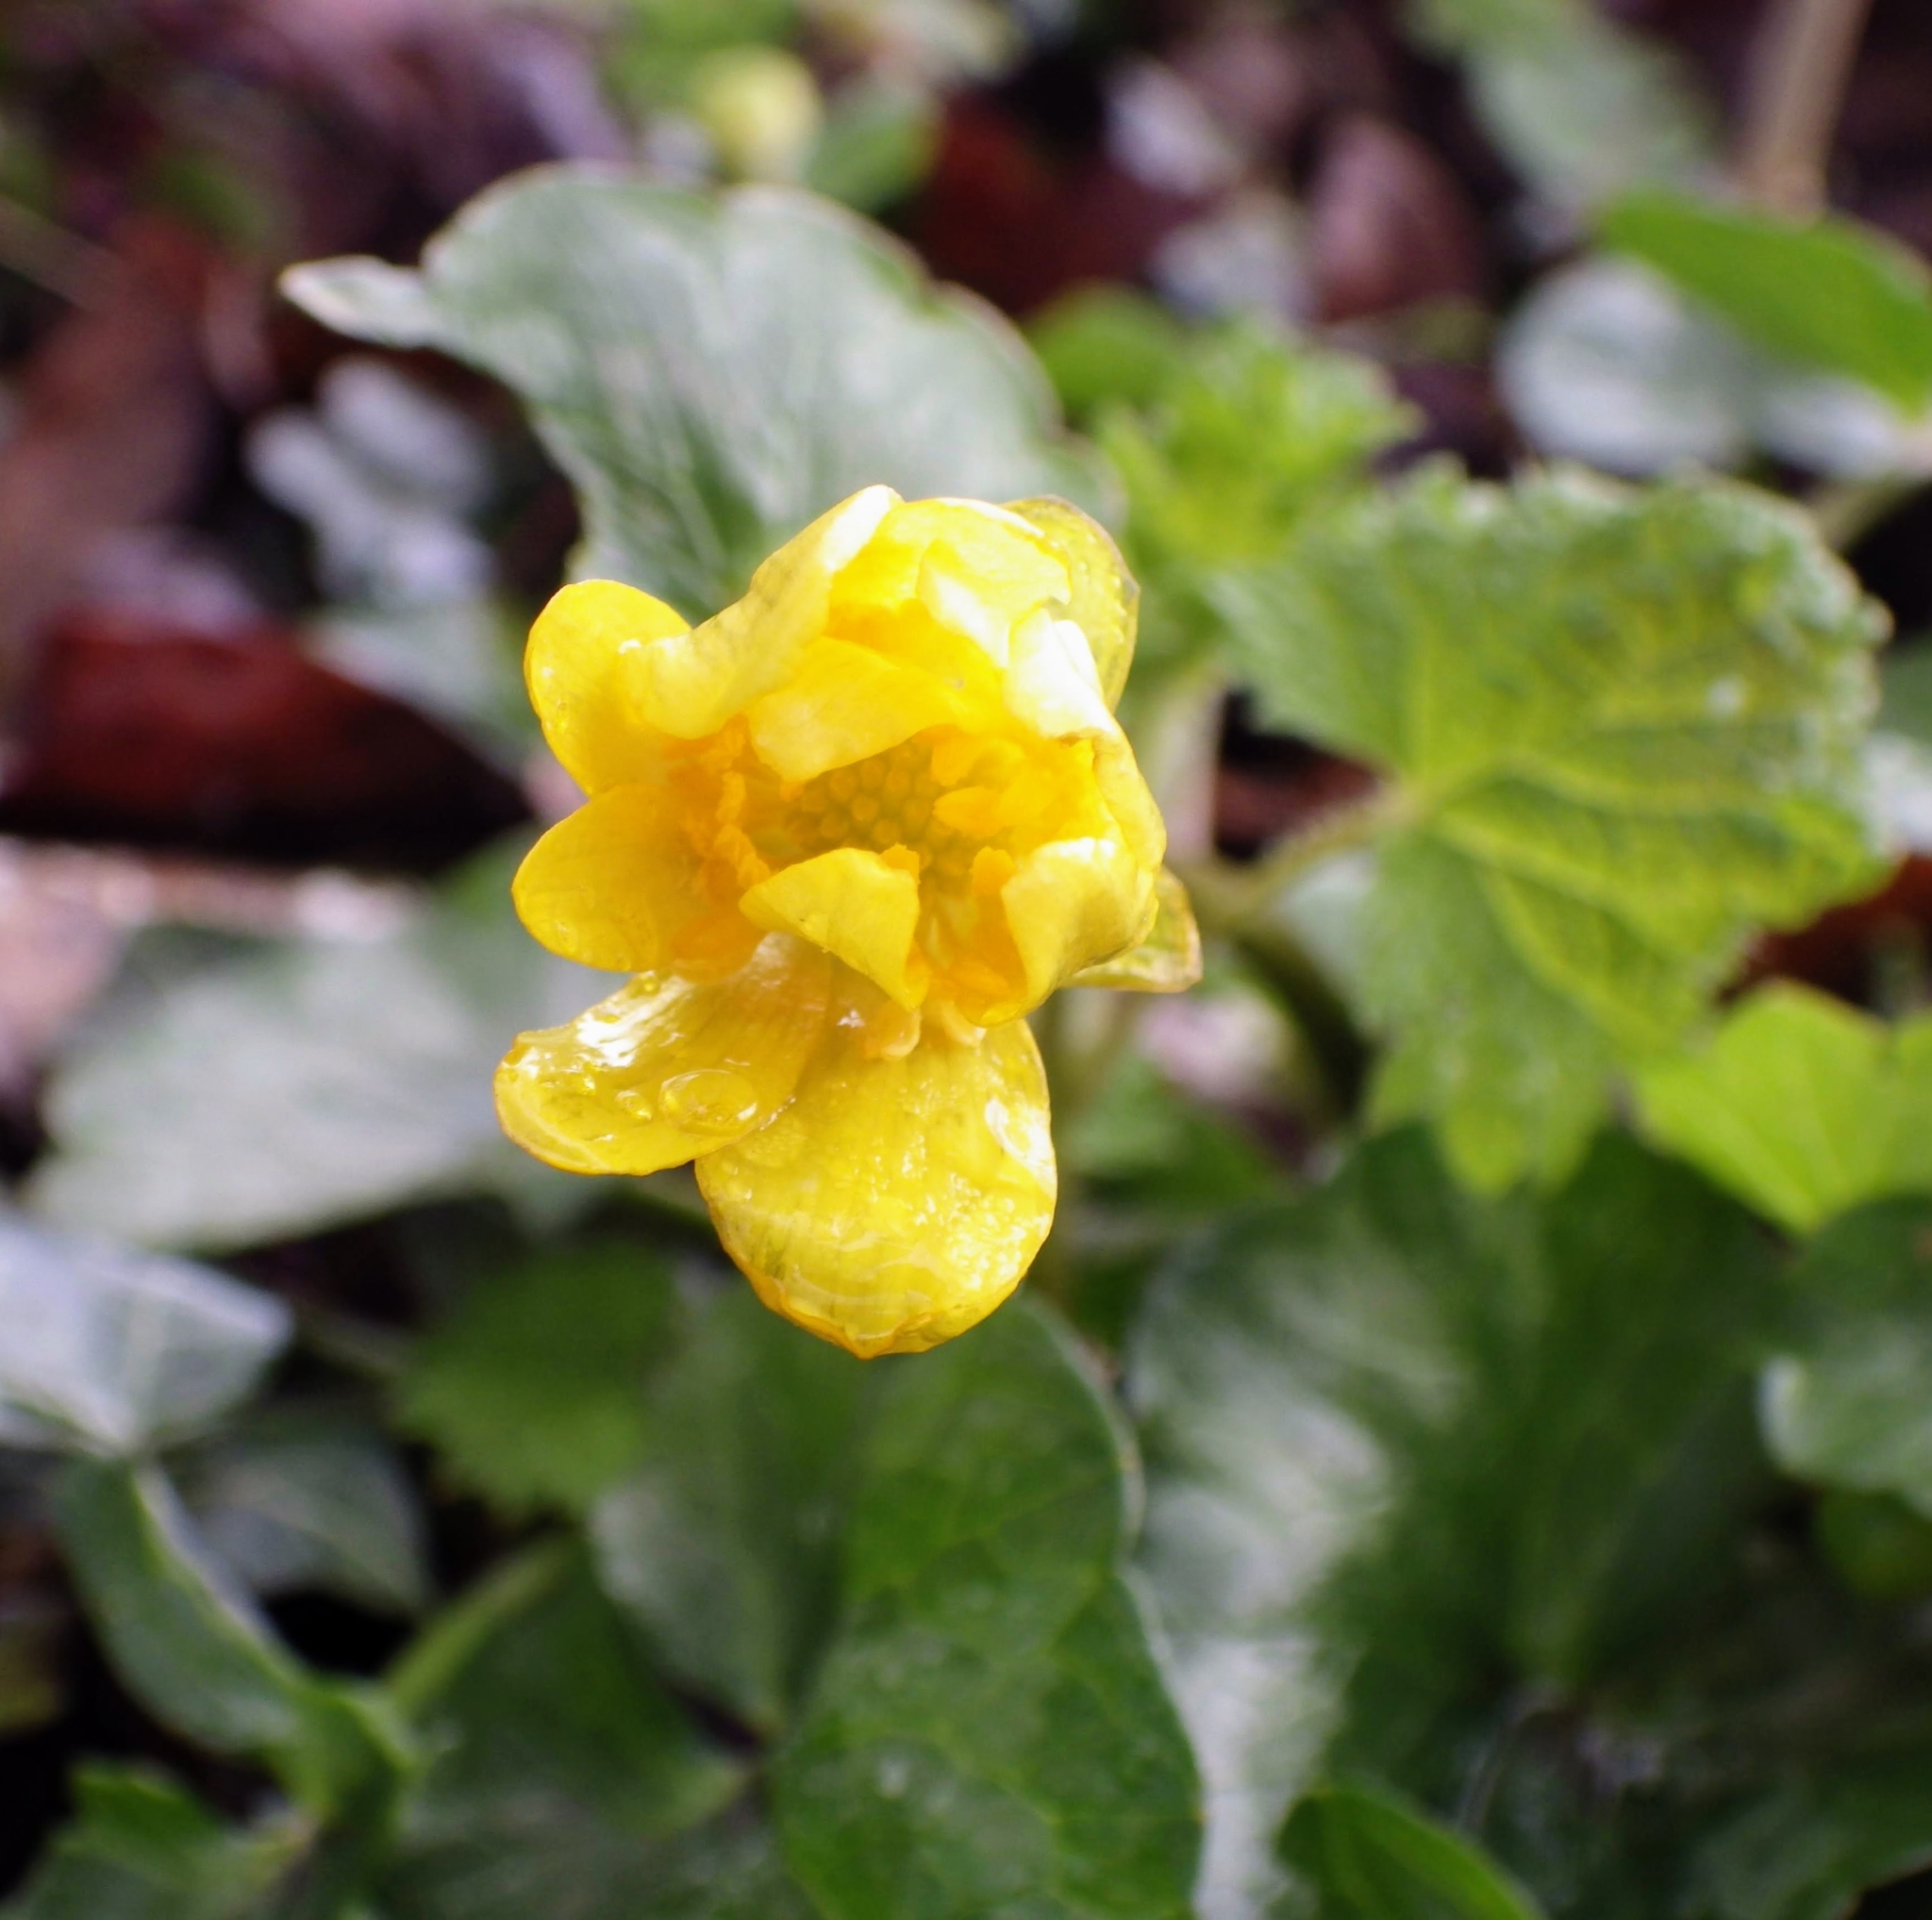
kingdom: Plantae
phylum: Tracheophyta
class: Magnoliopsida
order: Ranunculales
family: Ranunculaceae
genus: Ficaria
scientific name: Ficaria verna
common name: Lesser celandine
